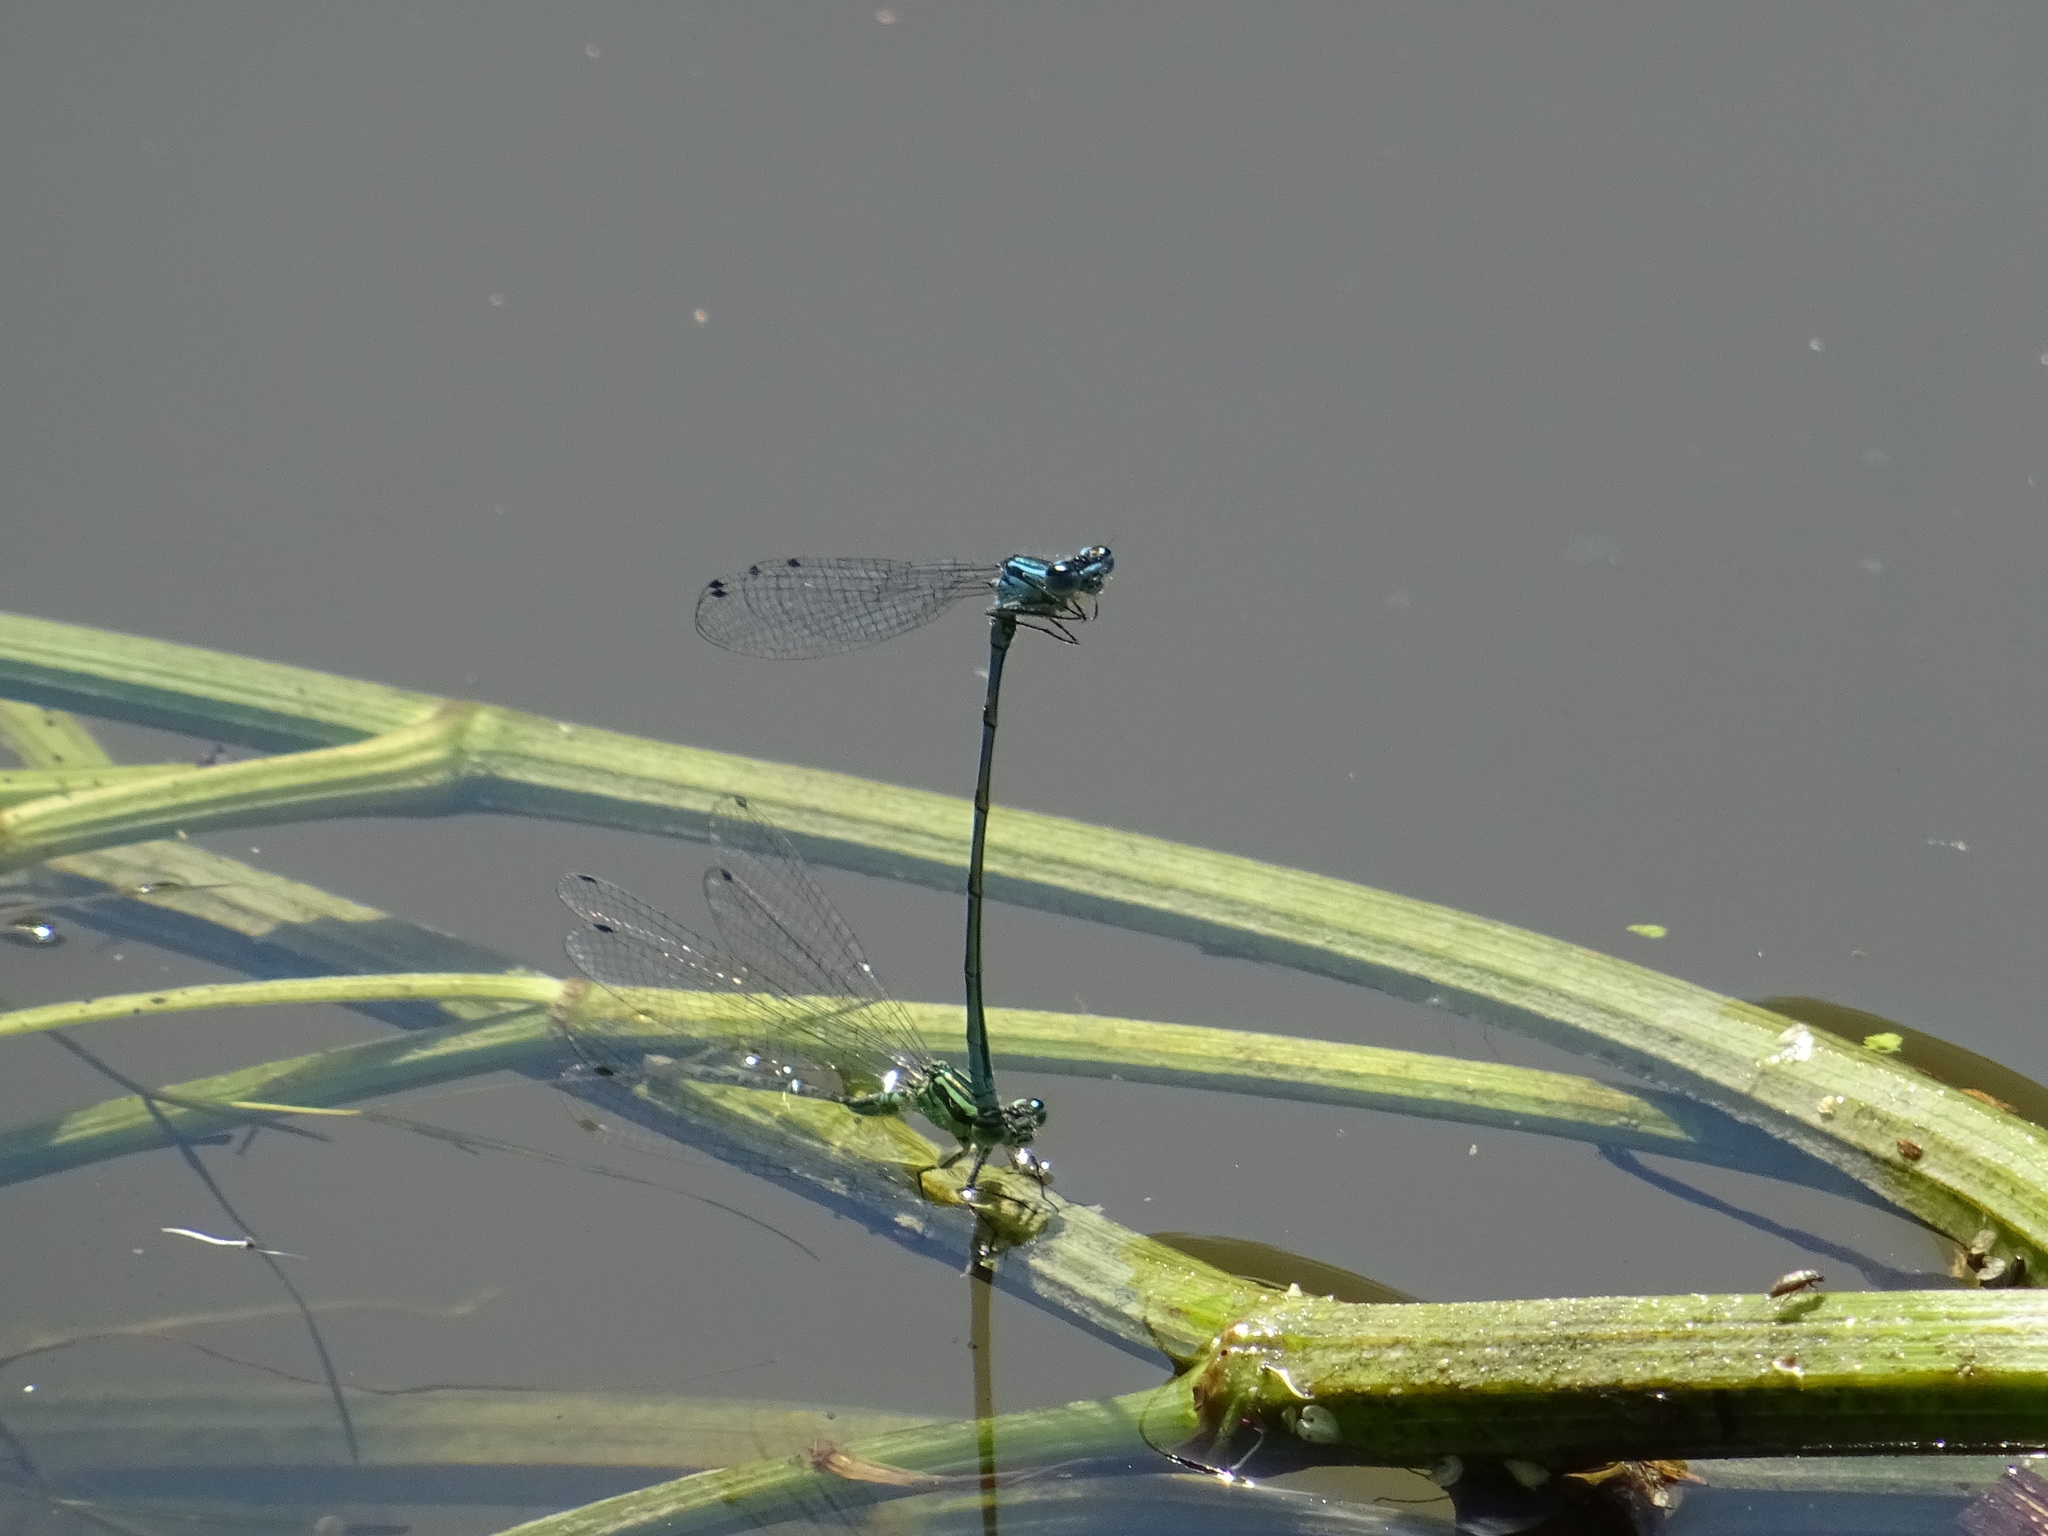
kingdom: Animalia
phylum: Arthropoda
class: Insecta
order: Odonata
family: Coenagrionidae
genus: Coenagrion
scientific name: Coenagrion puella
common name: Azure damselfly
